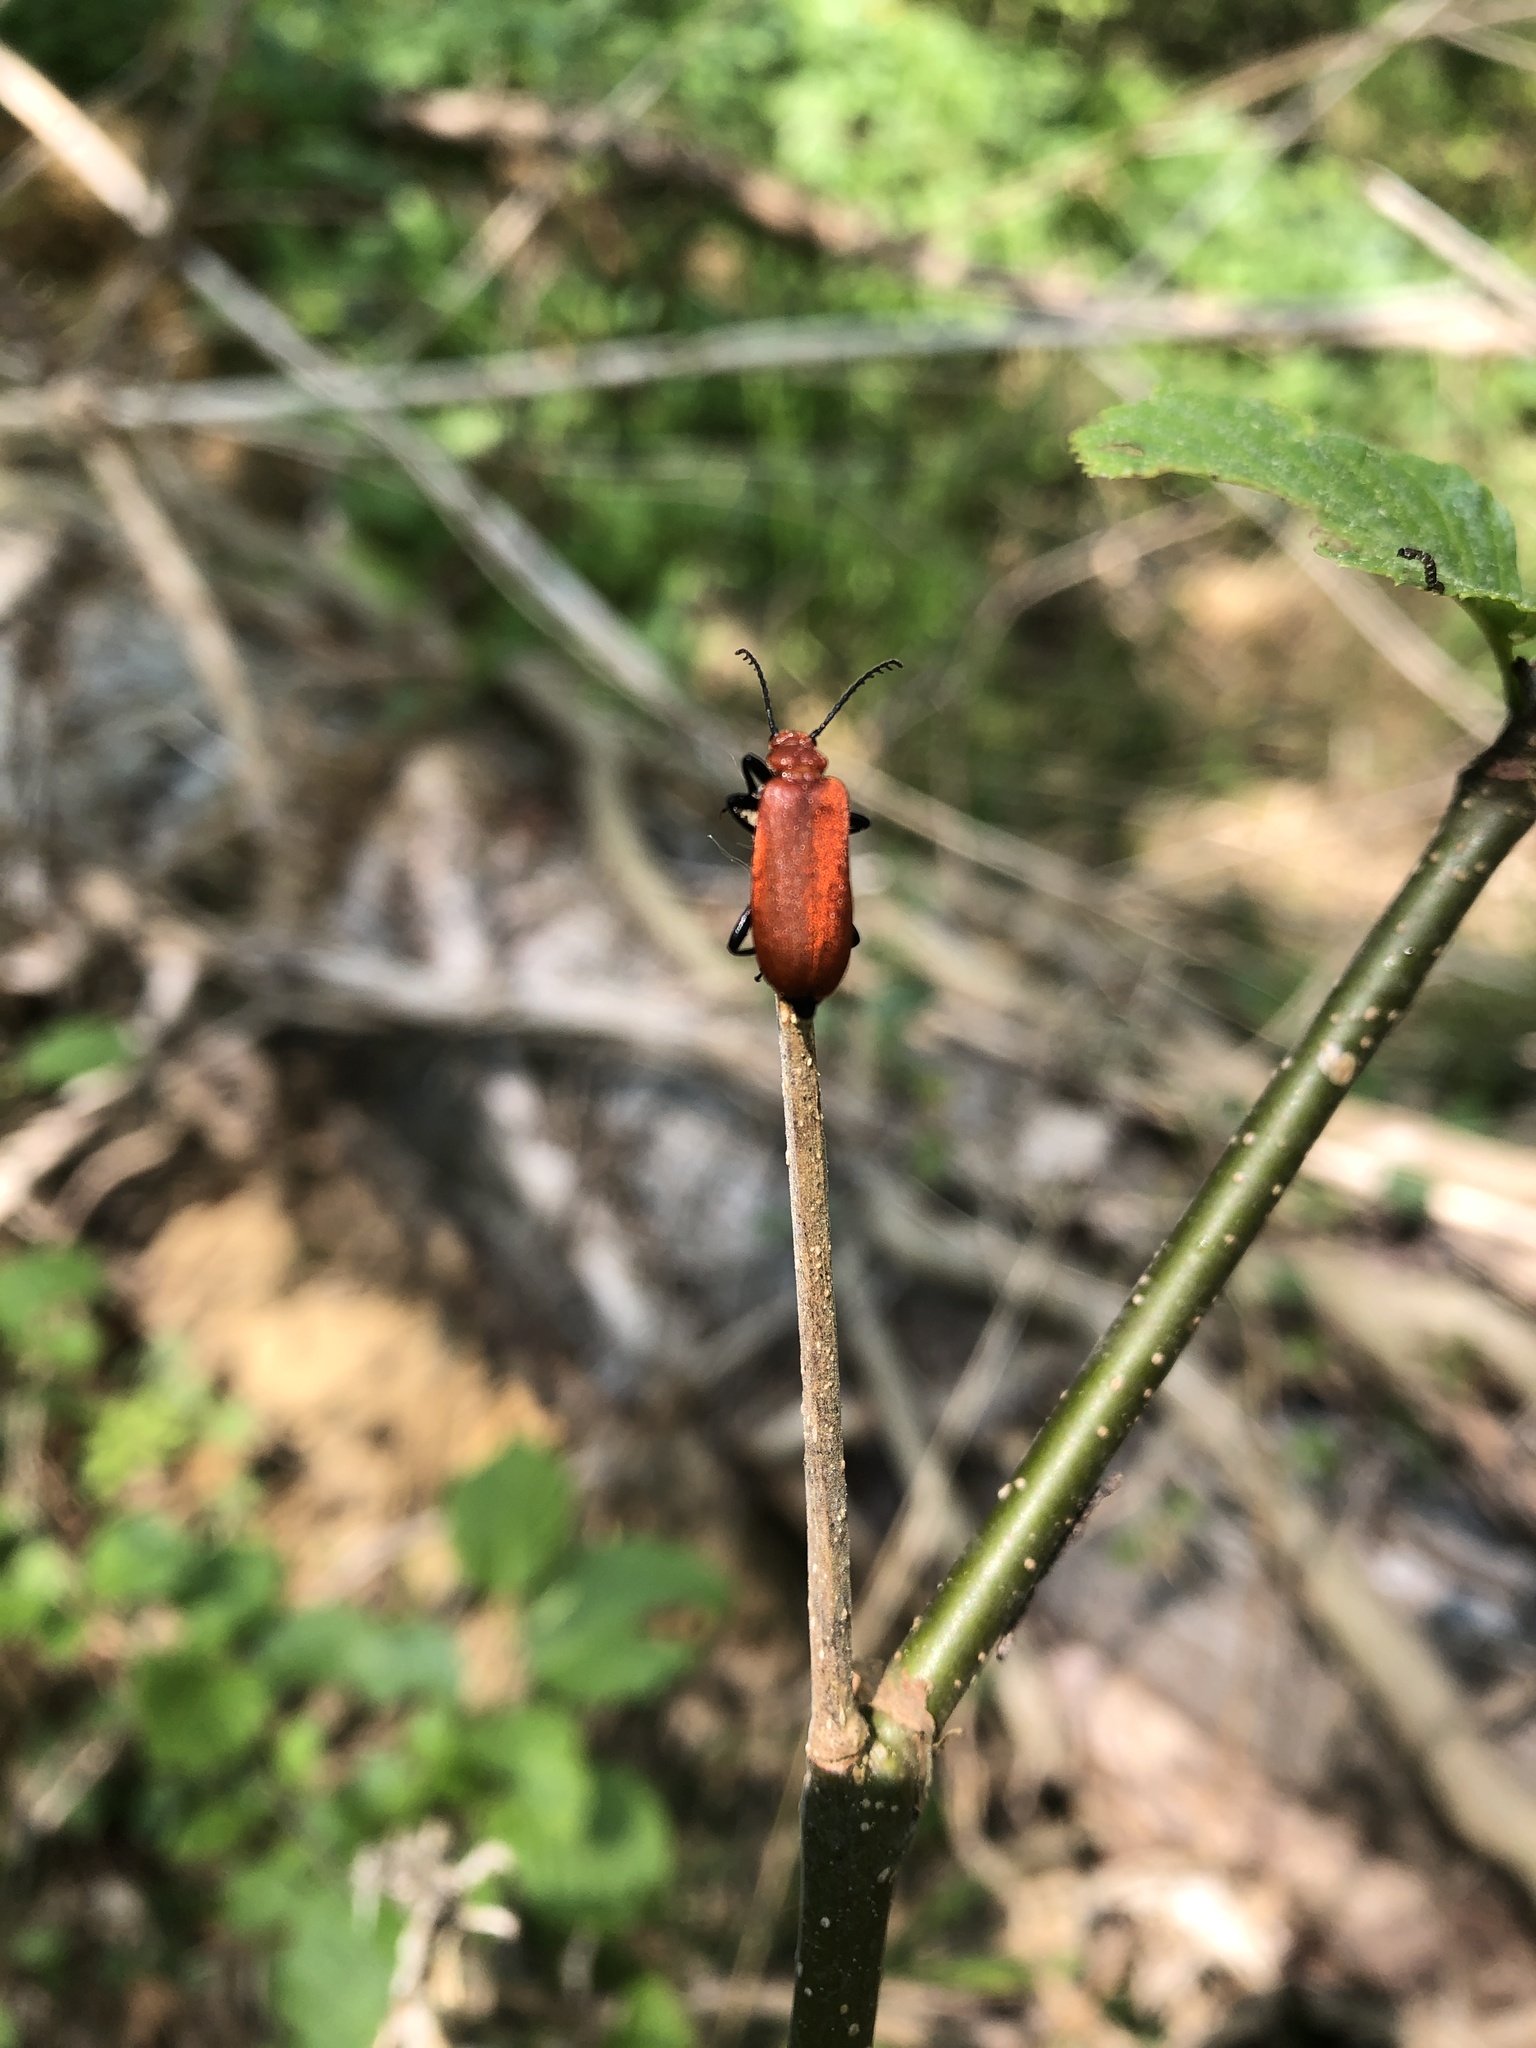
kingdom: Animalia
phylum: Arthropoda
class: Insecta
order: Coleoptera
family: Pyrochroidae
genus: Pyrochroa
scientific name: Pyrochroa serraticornis
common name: Red-headed cardinal beetle
